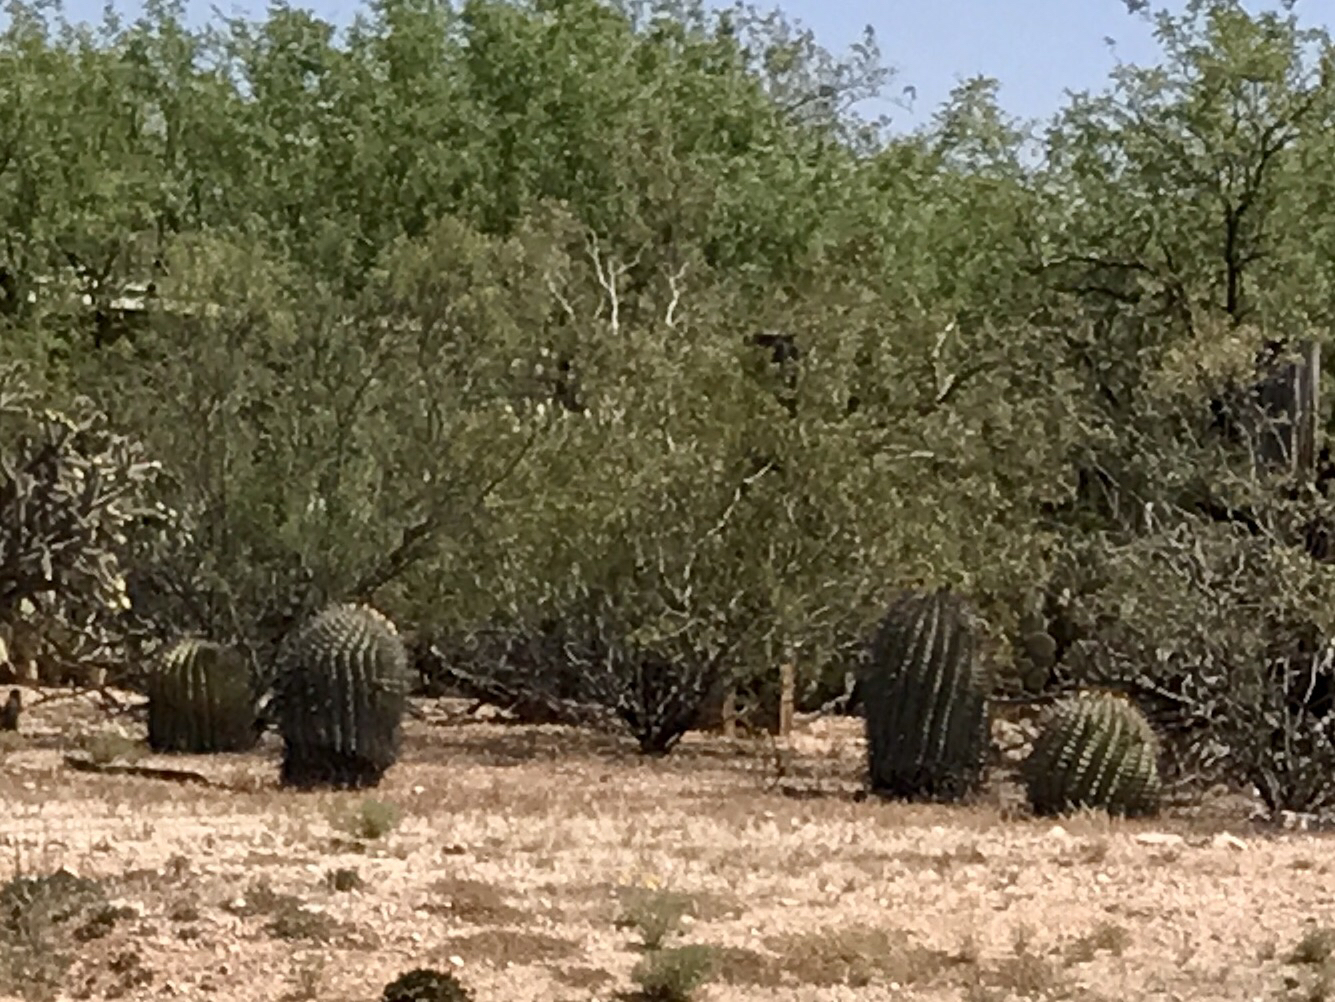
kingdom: Plantae
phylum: Tracheophyta
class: Magnoliopsida
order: Caryophyllales
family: Cactaceae
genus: Ferocactus
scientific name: Ferocactus wislizeni
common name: Candy barrel cactus
